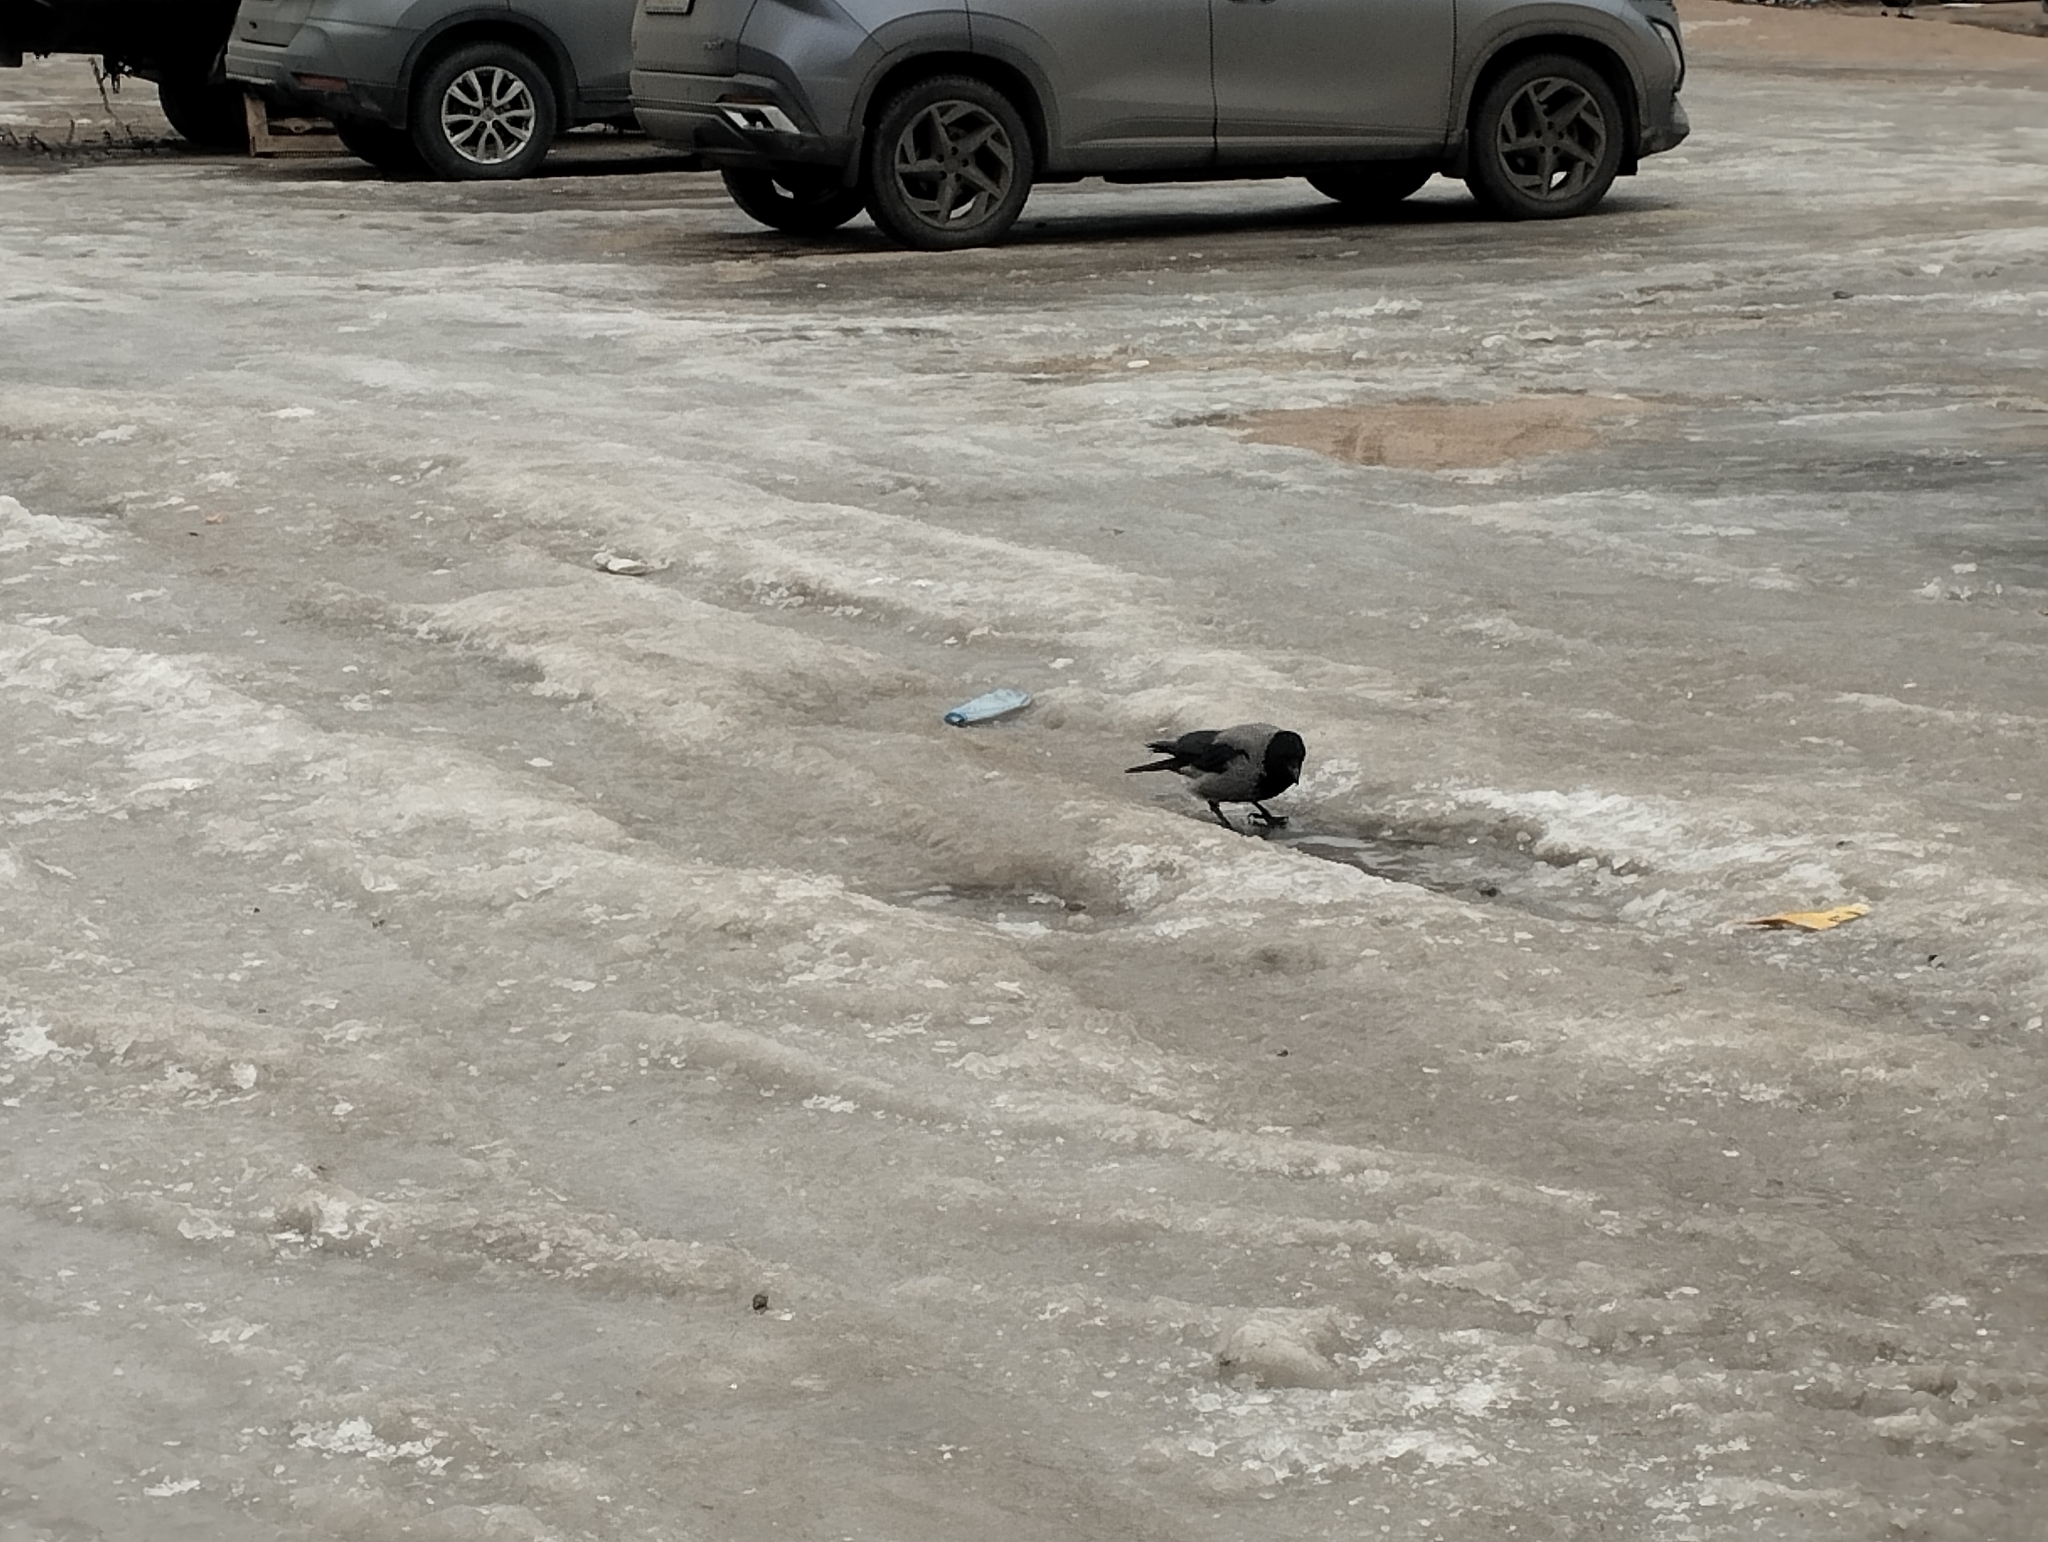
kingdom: Animalia
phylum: Chordata
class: Aves
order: Passeriformes
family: Corvidae
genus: Corvus
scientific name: Corvus cornix
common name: Hooded crow
